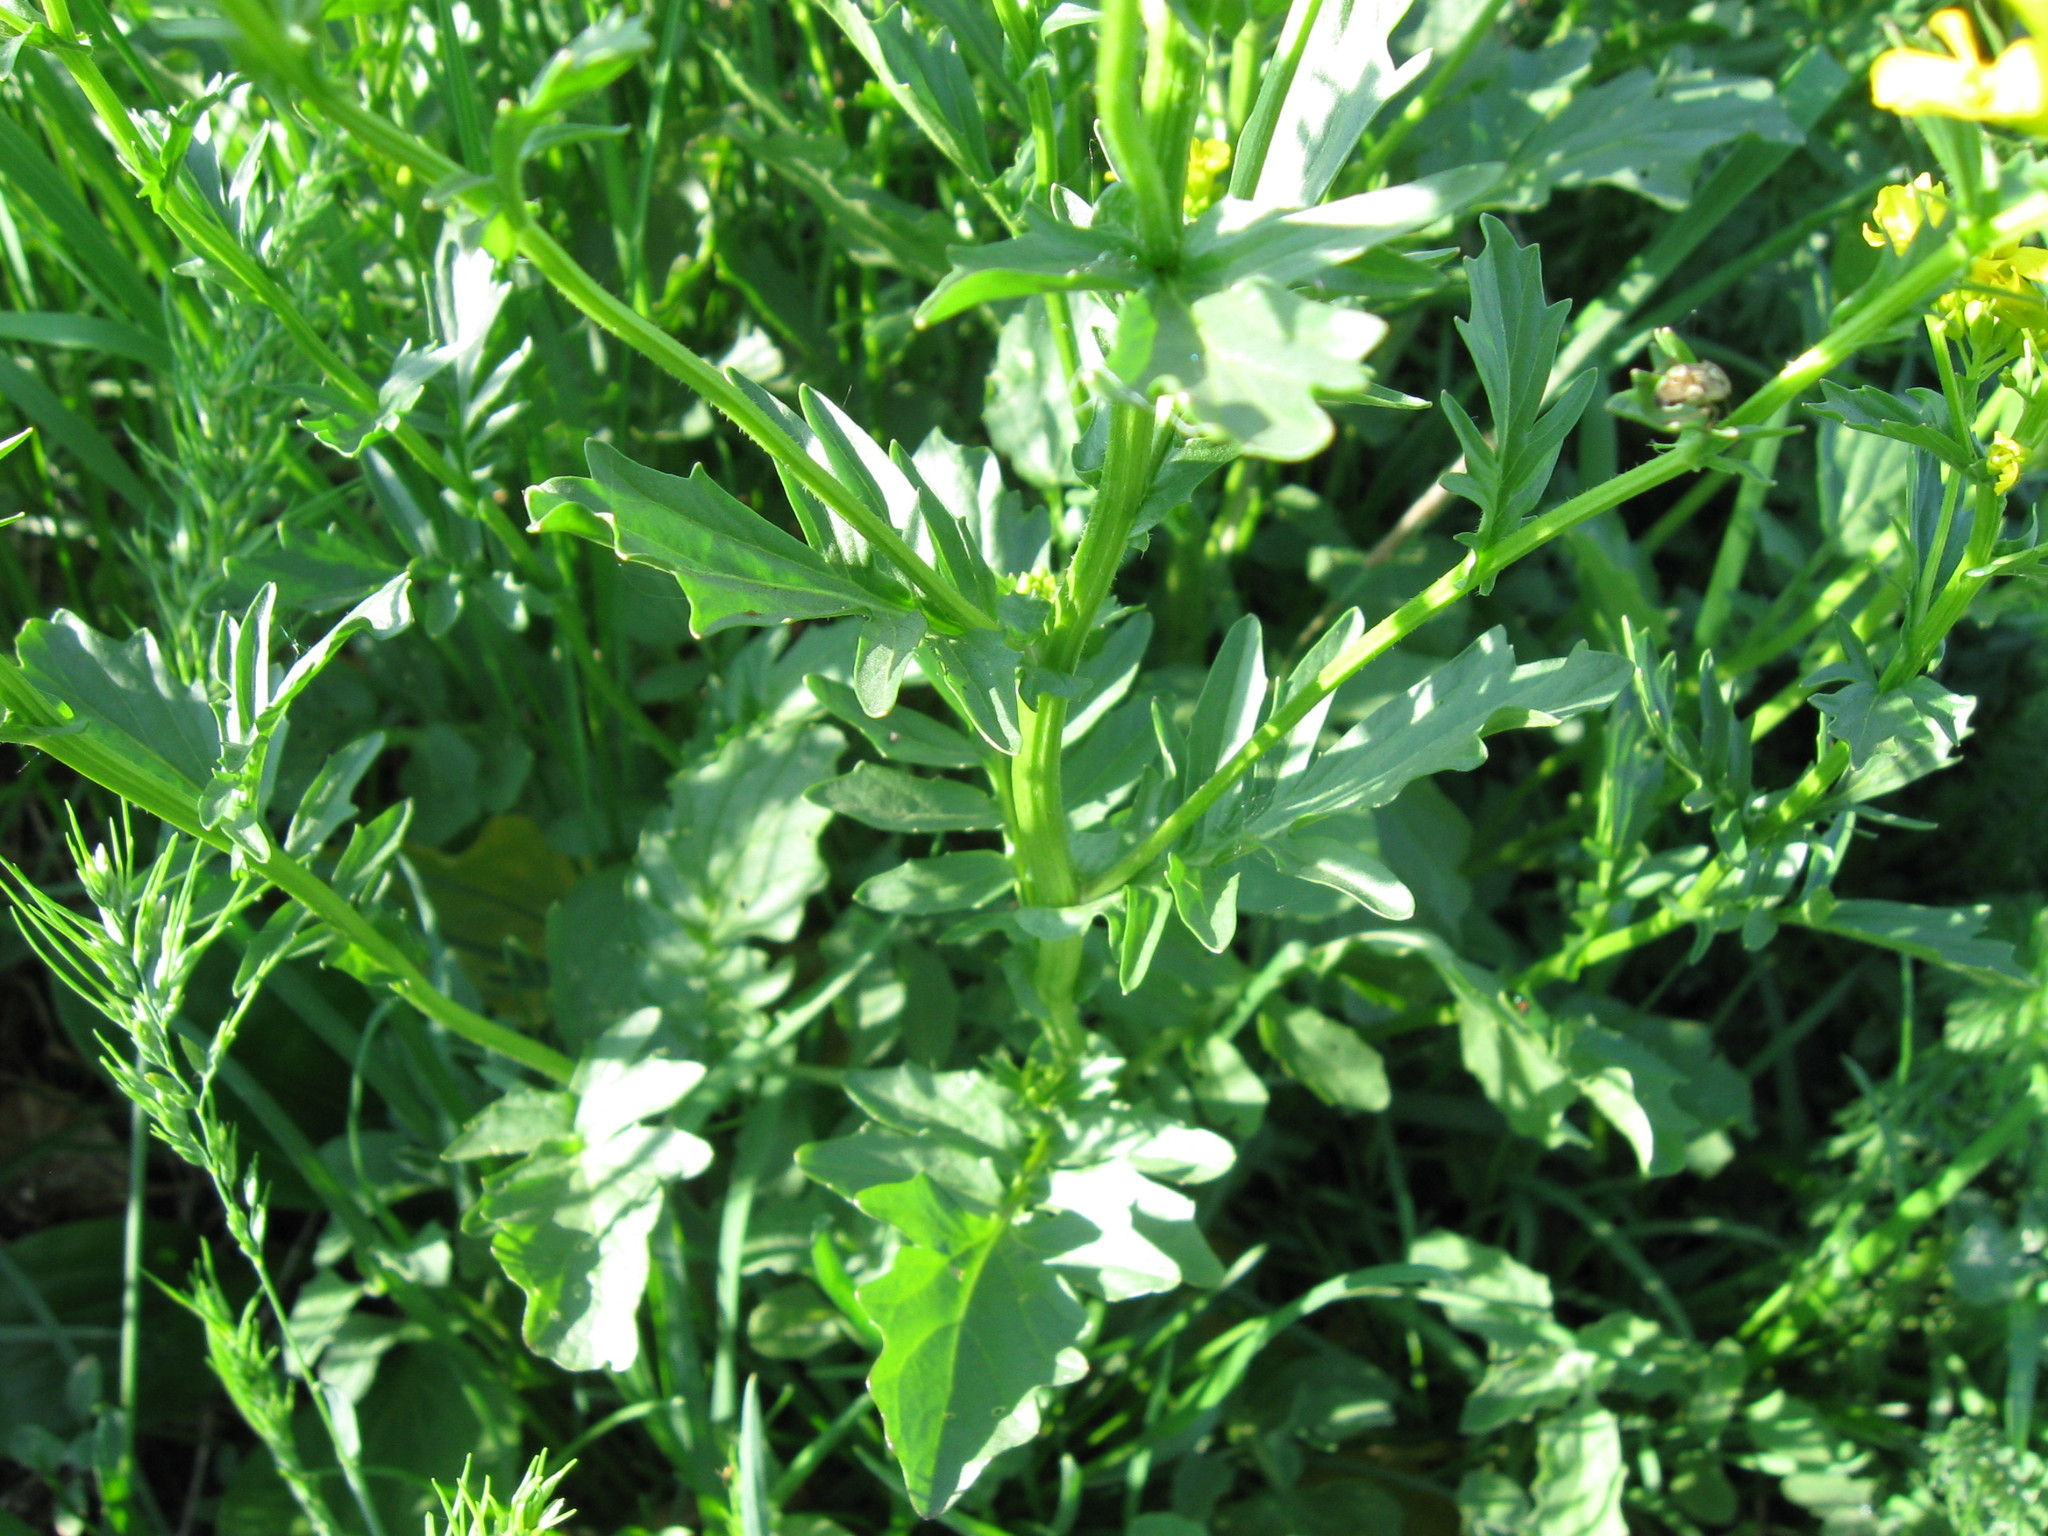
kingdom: Plantae
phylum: Tracheophyta
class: Magnoliopsida
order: Brassicales
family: Brassicaceae
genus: Barbarea
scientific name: Barbarea vulgaris
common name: Cressy-greens
